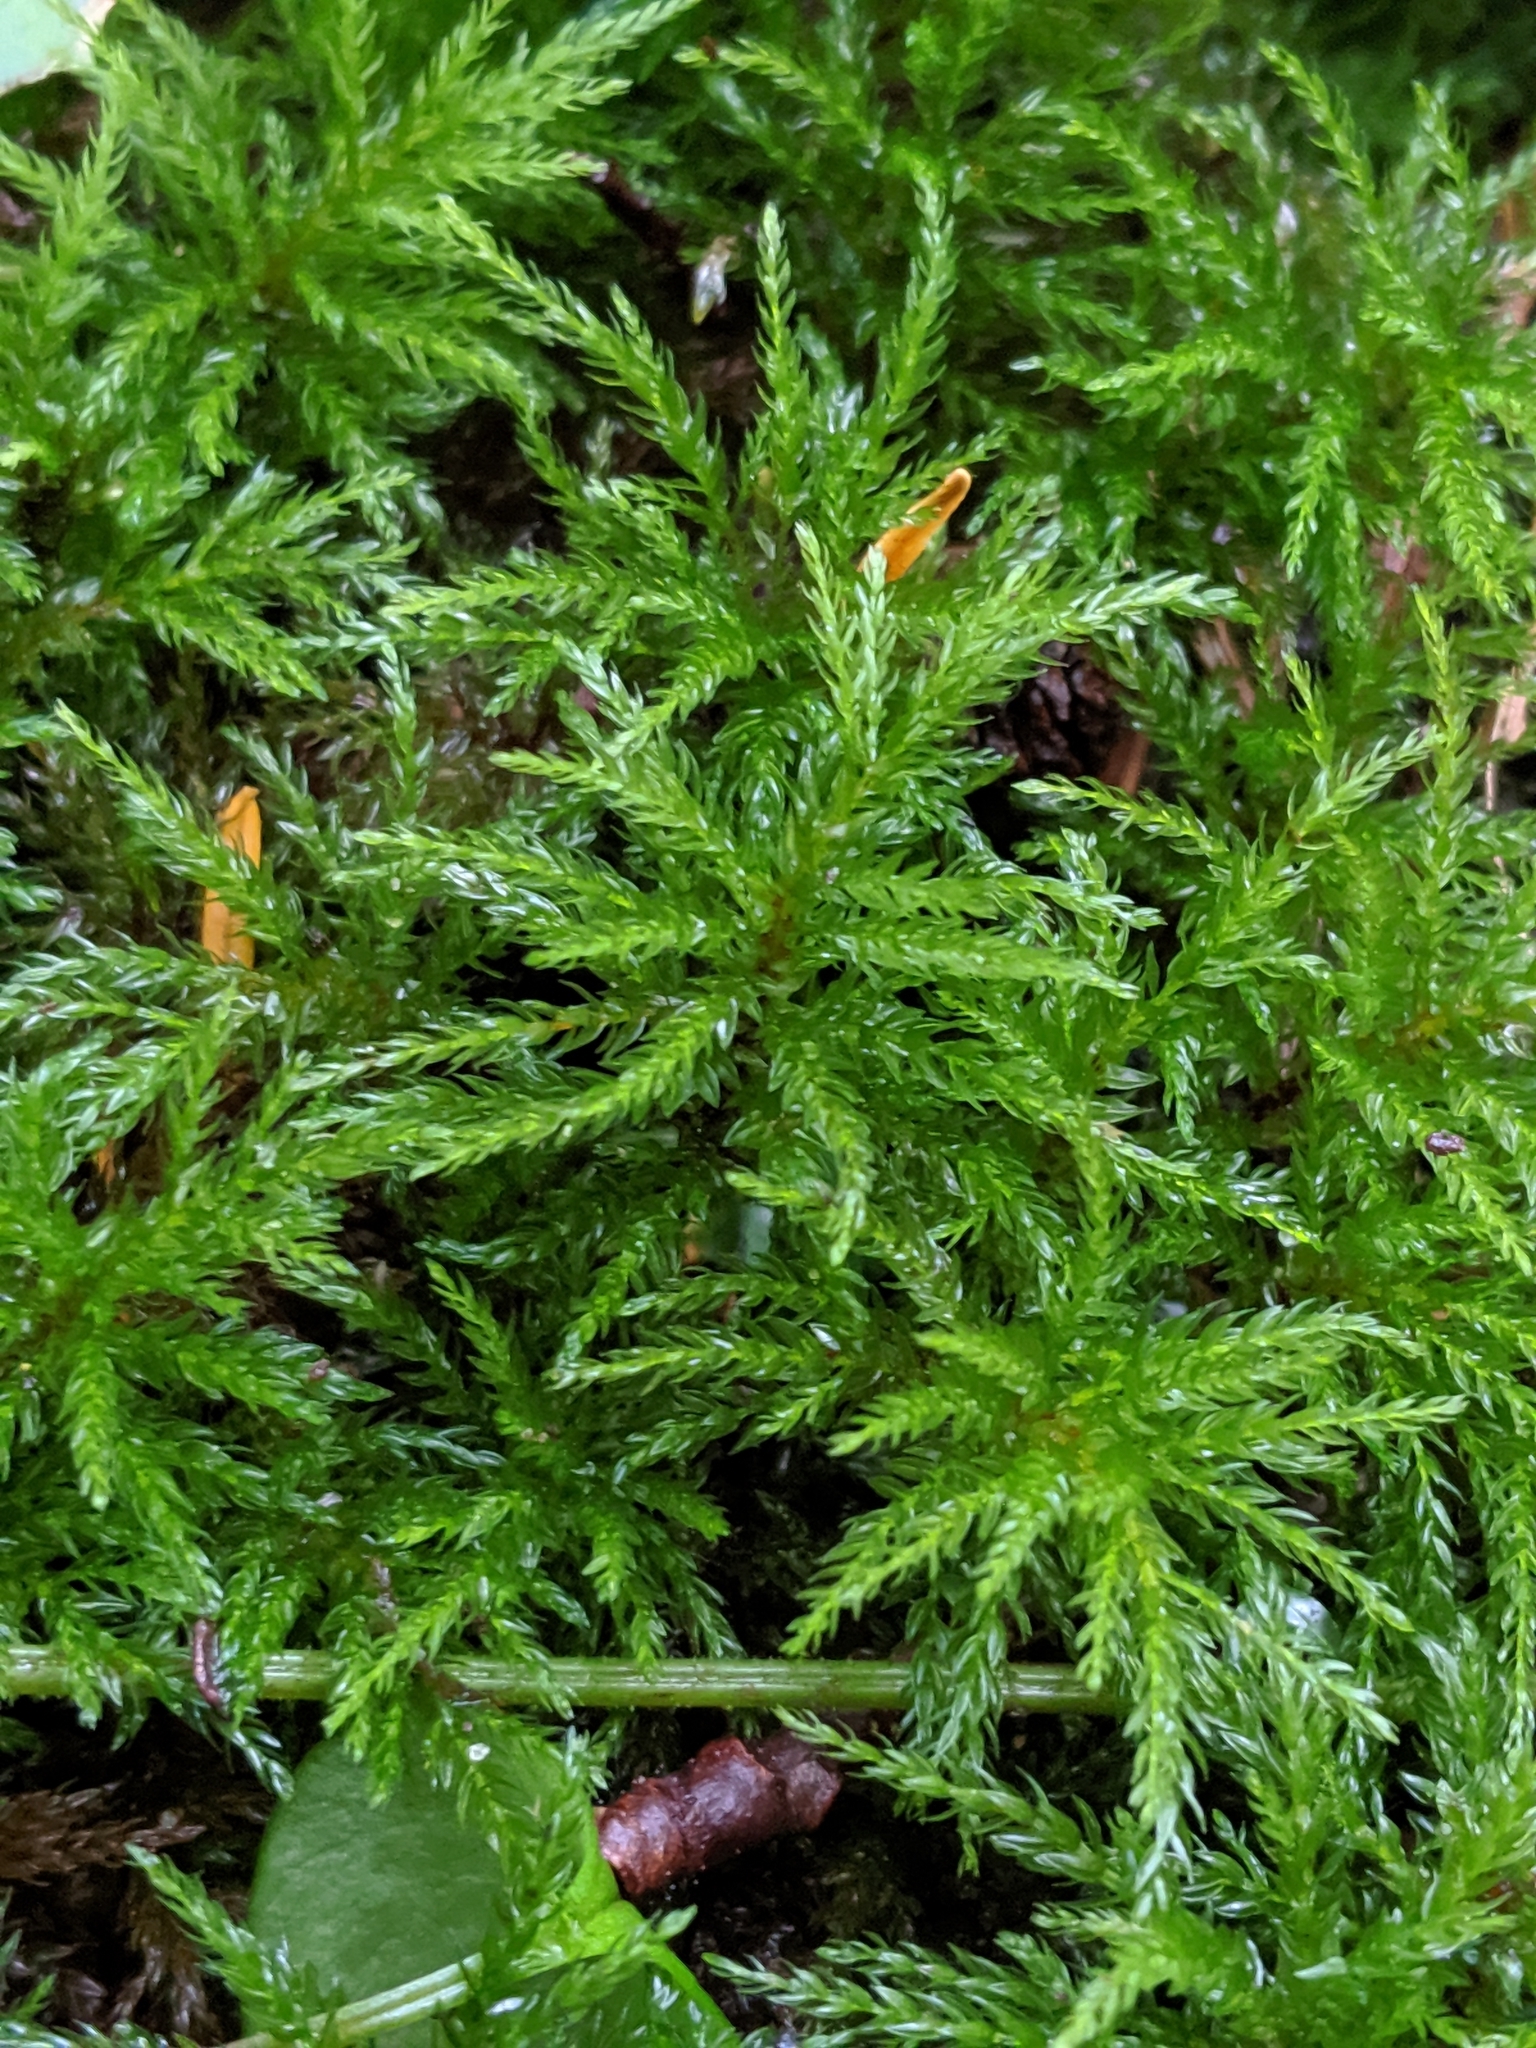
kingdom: Plantae
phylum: Bryophyta
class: Bryopsida
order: Bryales
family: Mniaceae
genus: Leucolepis
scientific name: Leucolepis acanthoneura
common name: Leucolepis umbrella moss
